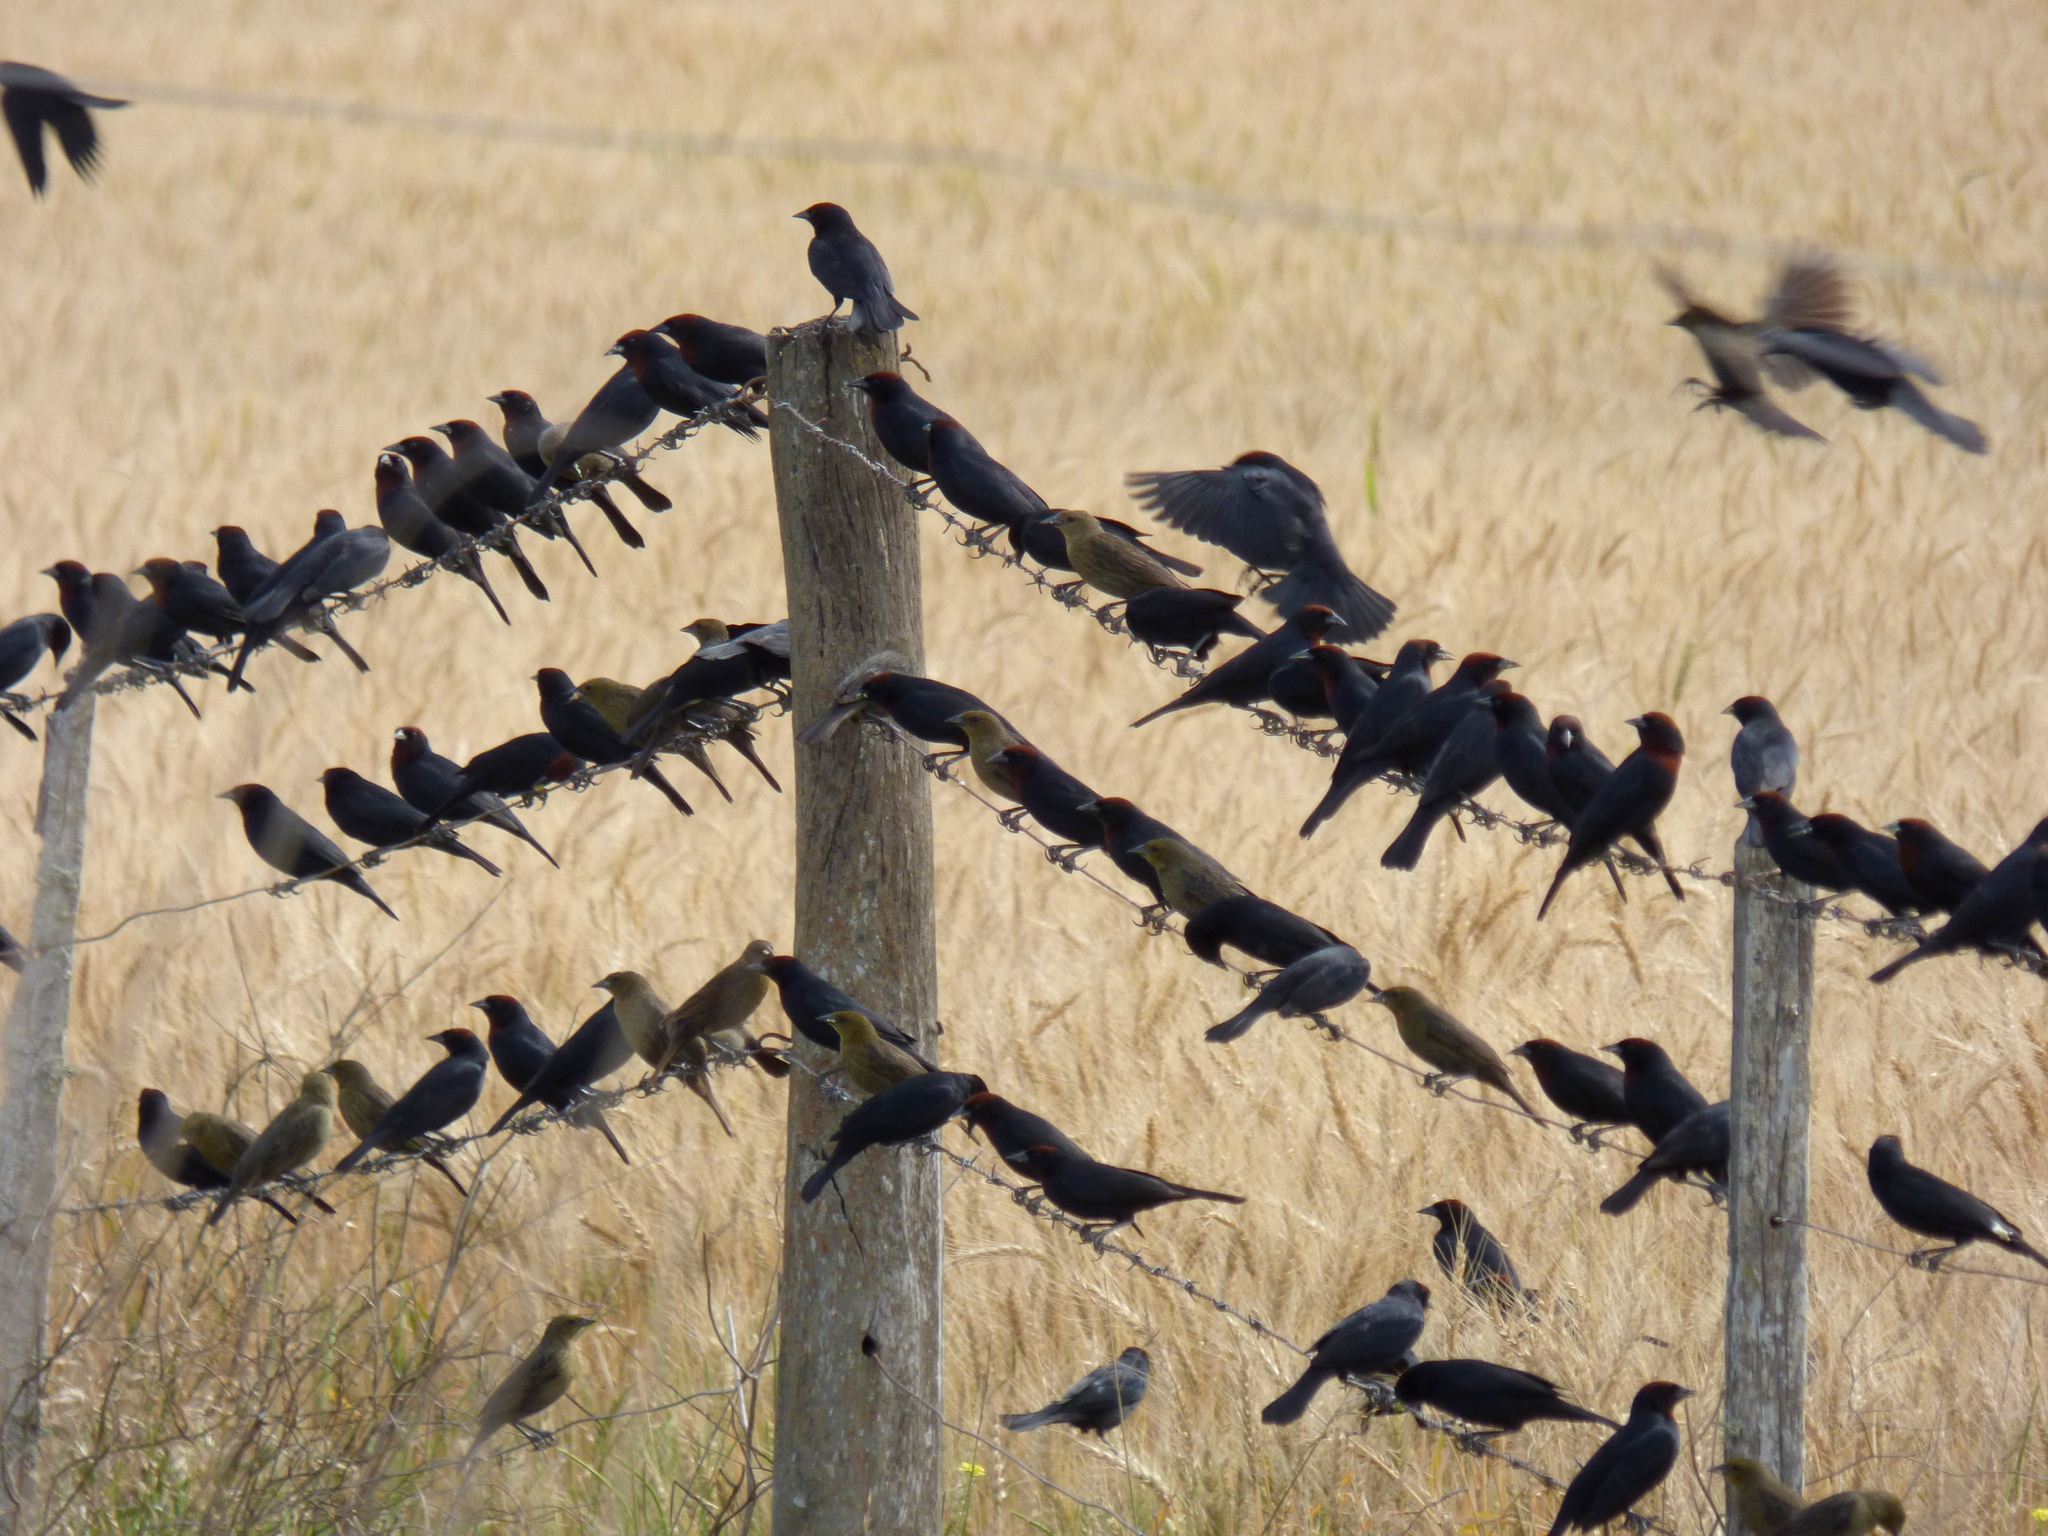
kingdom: Animalia
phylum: Chordata
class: Aves
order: Passeriformes
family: Icteridae
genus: Chrysomus
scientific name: Chrysomus ruficapillus
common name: Chestnut-capped blackbird
